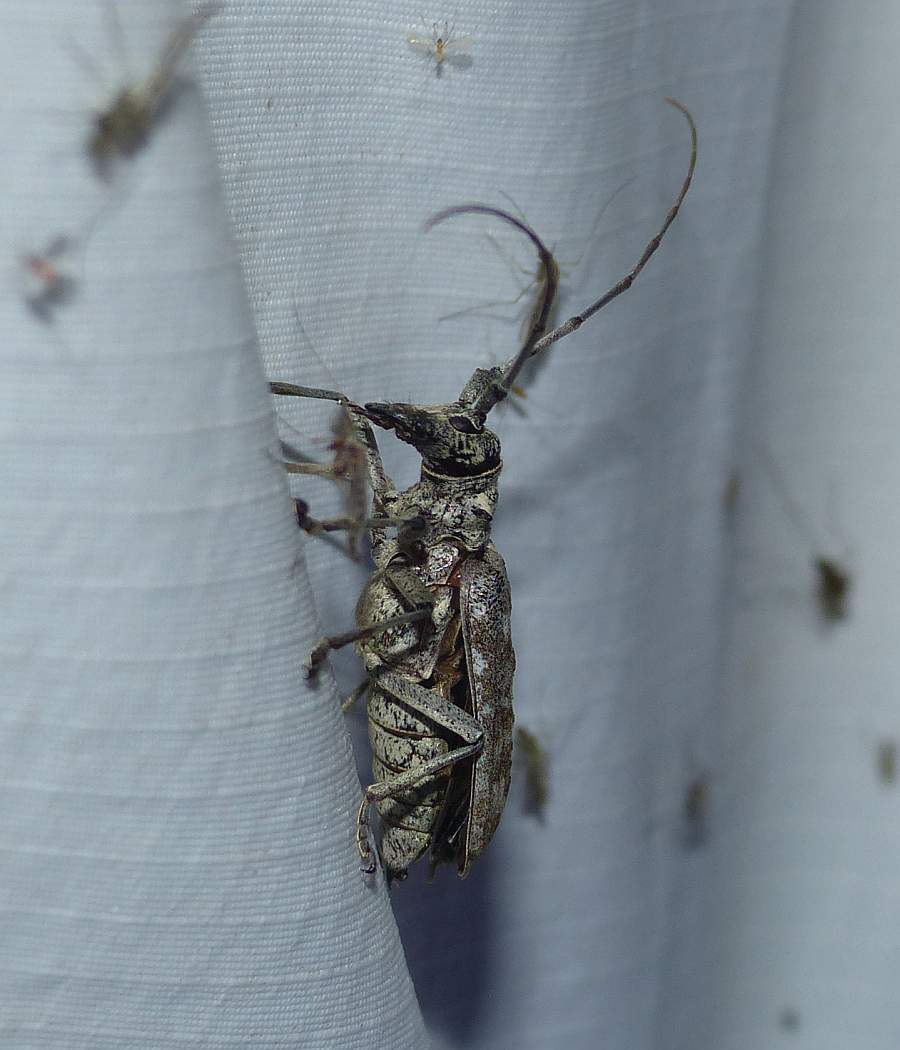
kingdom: Animalia
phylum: Arthropoda
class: Insecta
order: Coleoptera
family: Cerambycidae
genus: Monochamus
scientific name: Monochamus notatus
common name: Northeastern pine sawyer beetle
